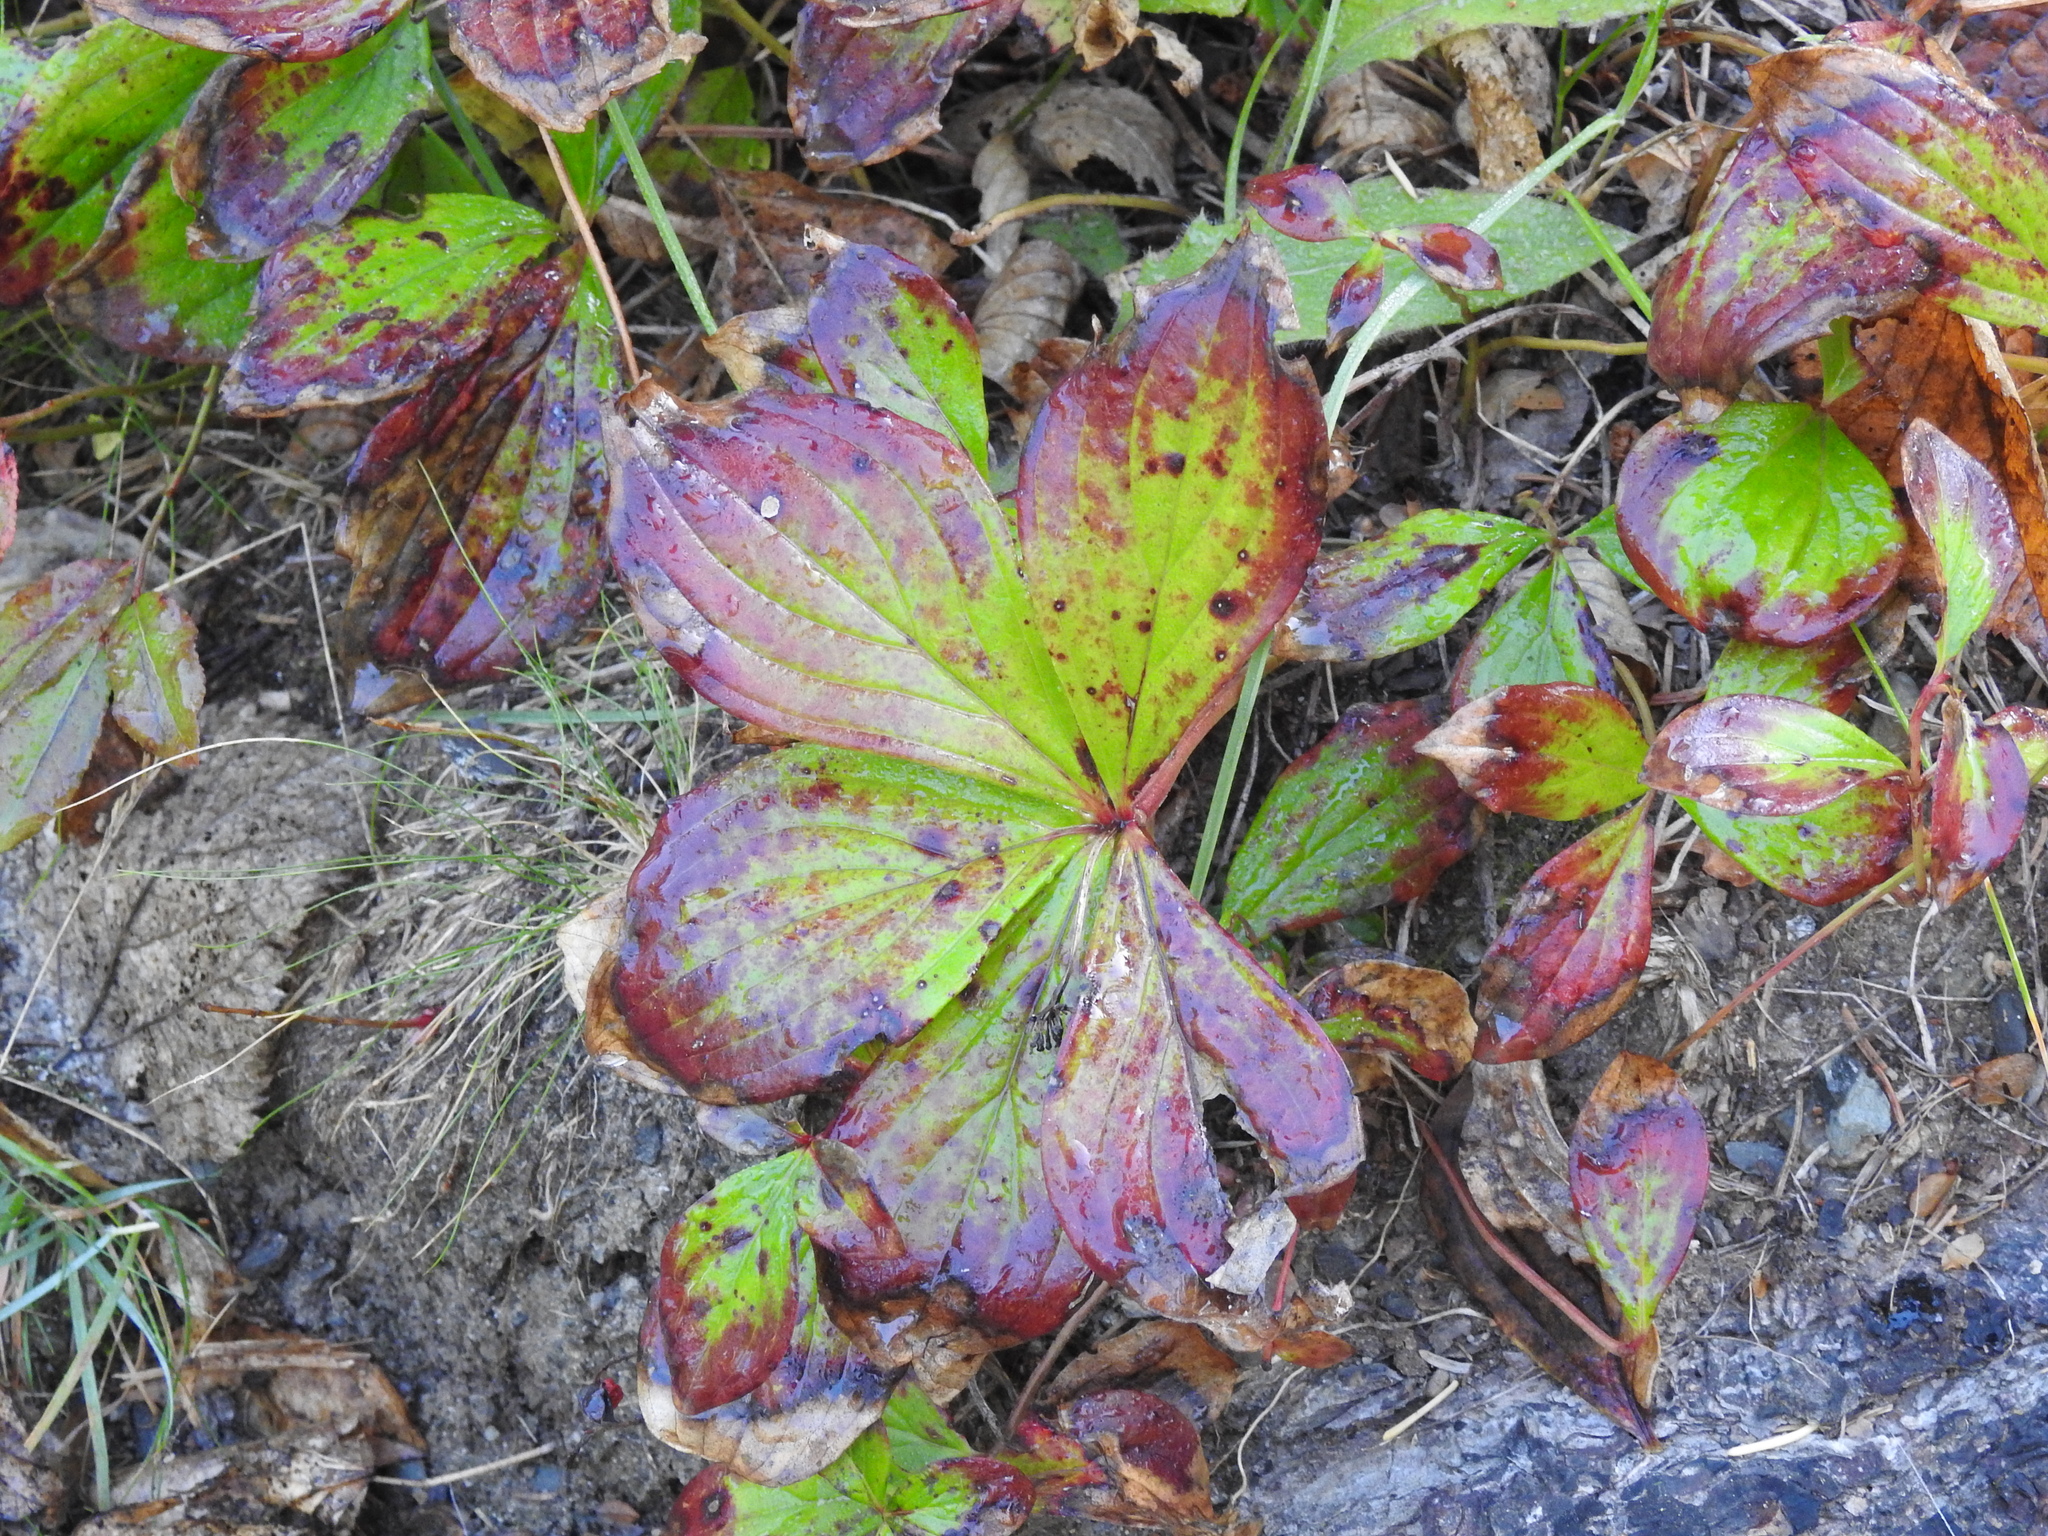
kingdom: Plantae
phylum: Tracheophyta
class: Magnoliopsida
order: Cornales
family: Cornaceae
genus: Cornus
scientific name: Cornus canadensis
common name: Creeping dogwood
